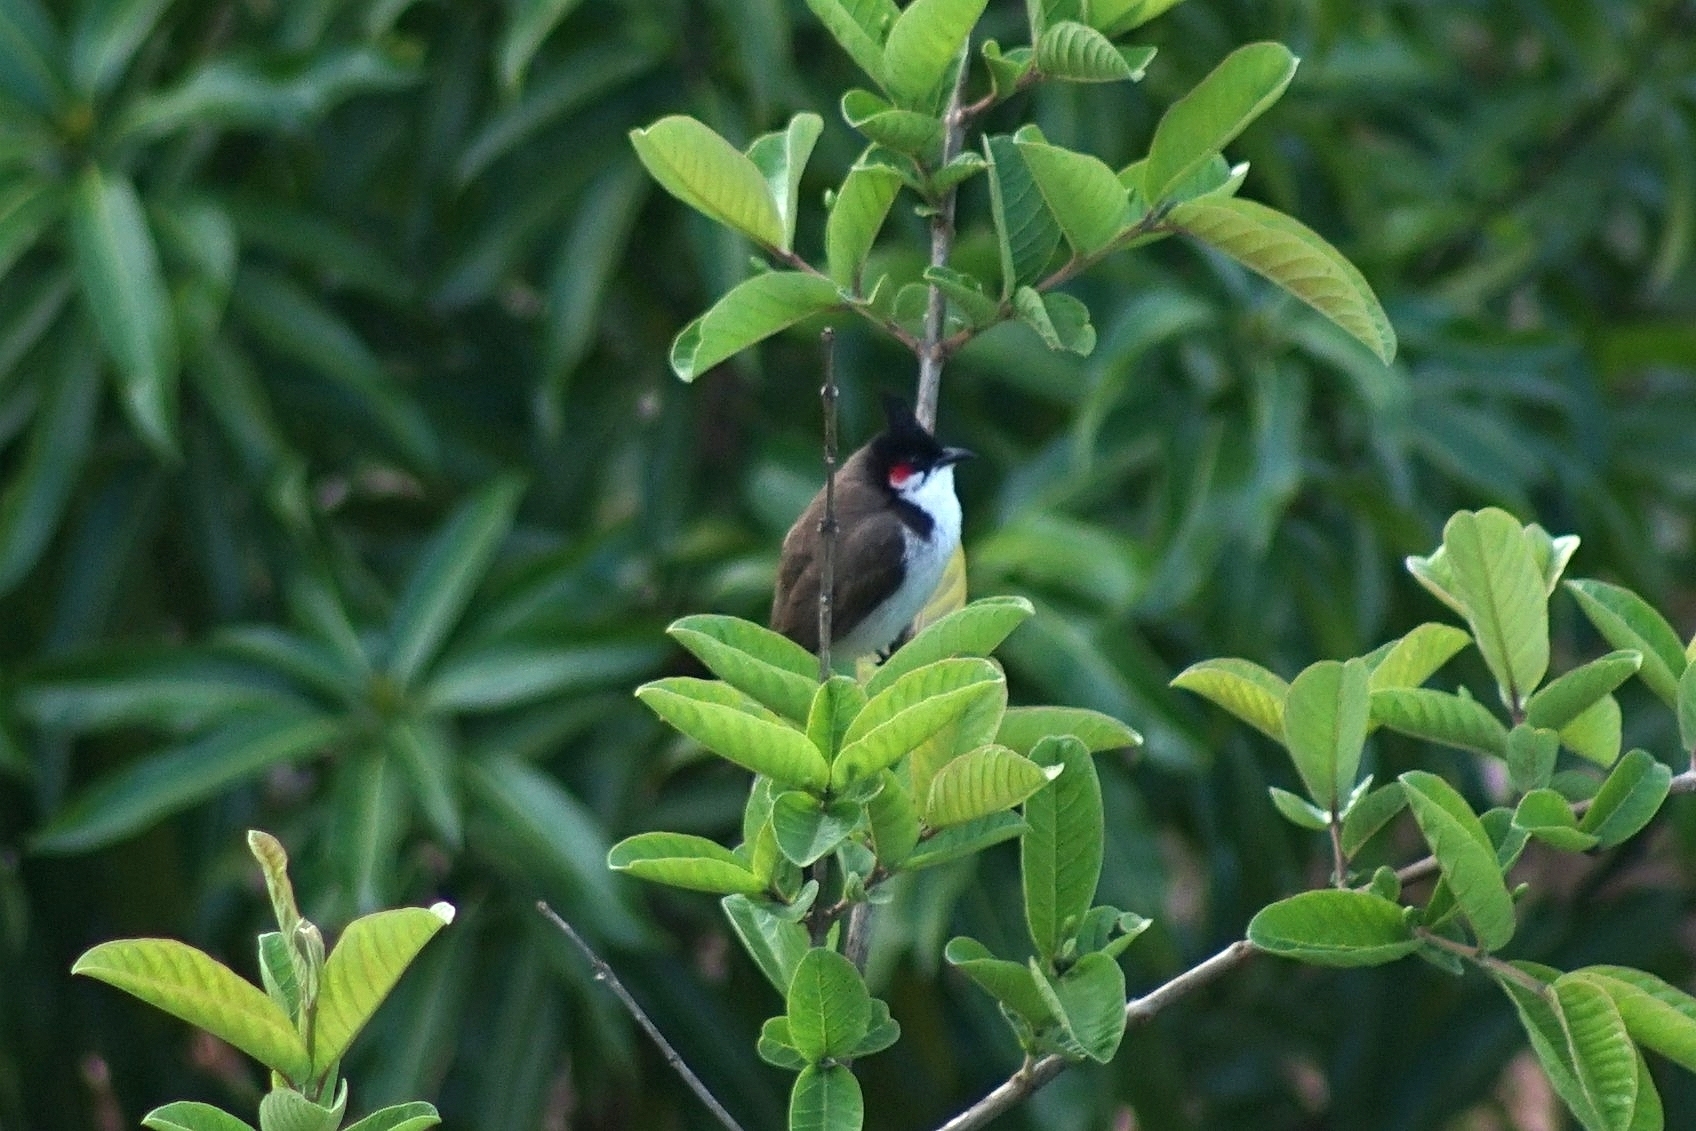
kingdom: Animalia
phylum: Chordata
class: Aves
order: Passeriformes
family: Pycnonotidae
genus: Pycnonotus
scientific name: Pycnonotus jocosus
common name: Red-whiskered bulbul
